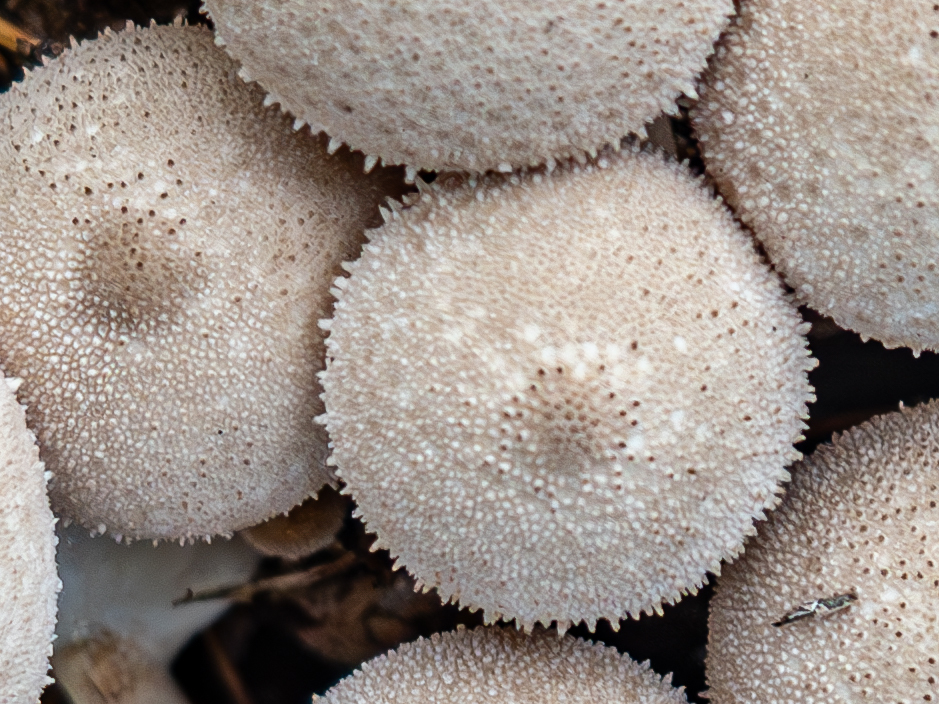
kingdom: Fungi
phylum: Basidiomycota
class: Agaricomycetes
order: Agaricales
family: Lycoperdaceae
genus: Lycoperdon
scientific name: Lycoperdon perlatum
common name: Common puffball
